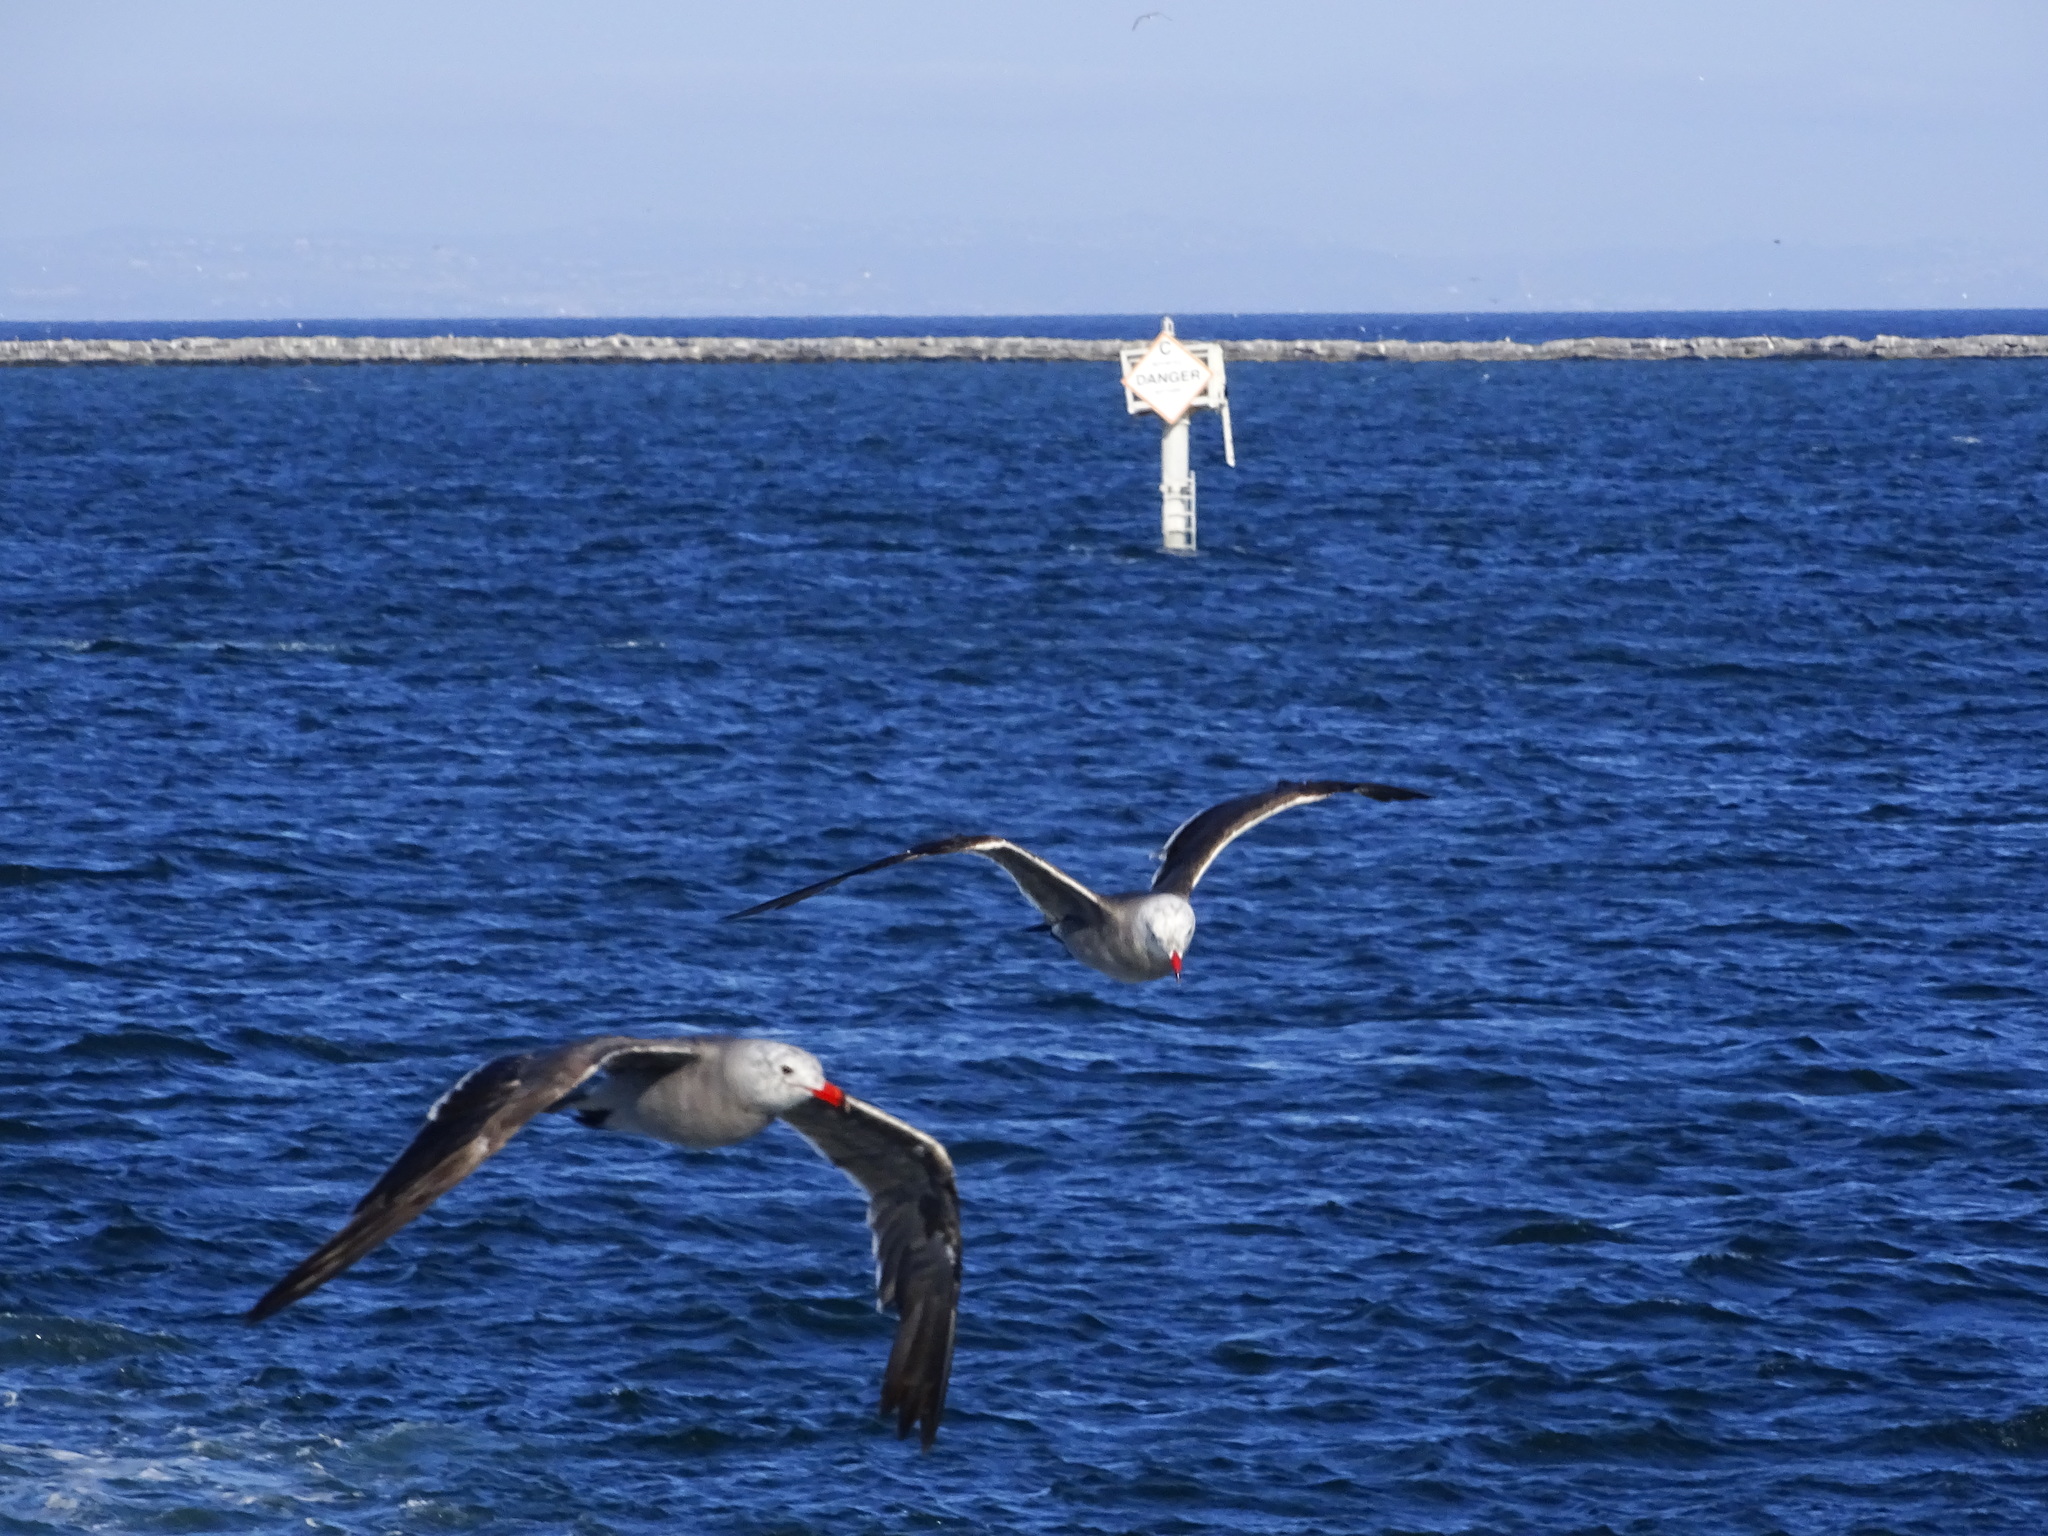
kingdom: Animalia
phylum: Chordata
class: Aves
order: Charadriiformes
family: Laridae
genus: Larus
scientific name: Larus heermanni
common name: Heermann's gull
